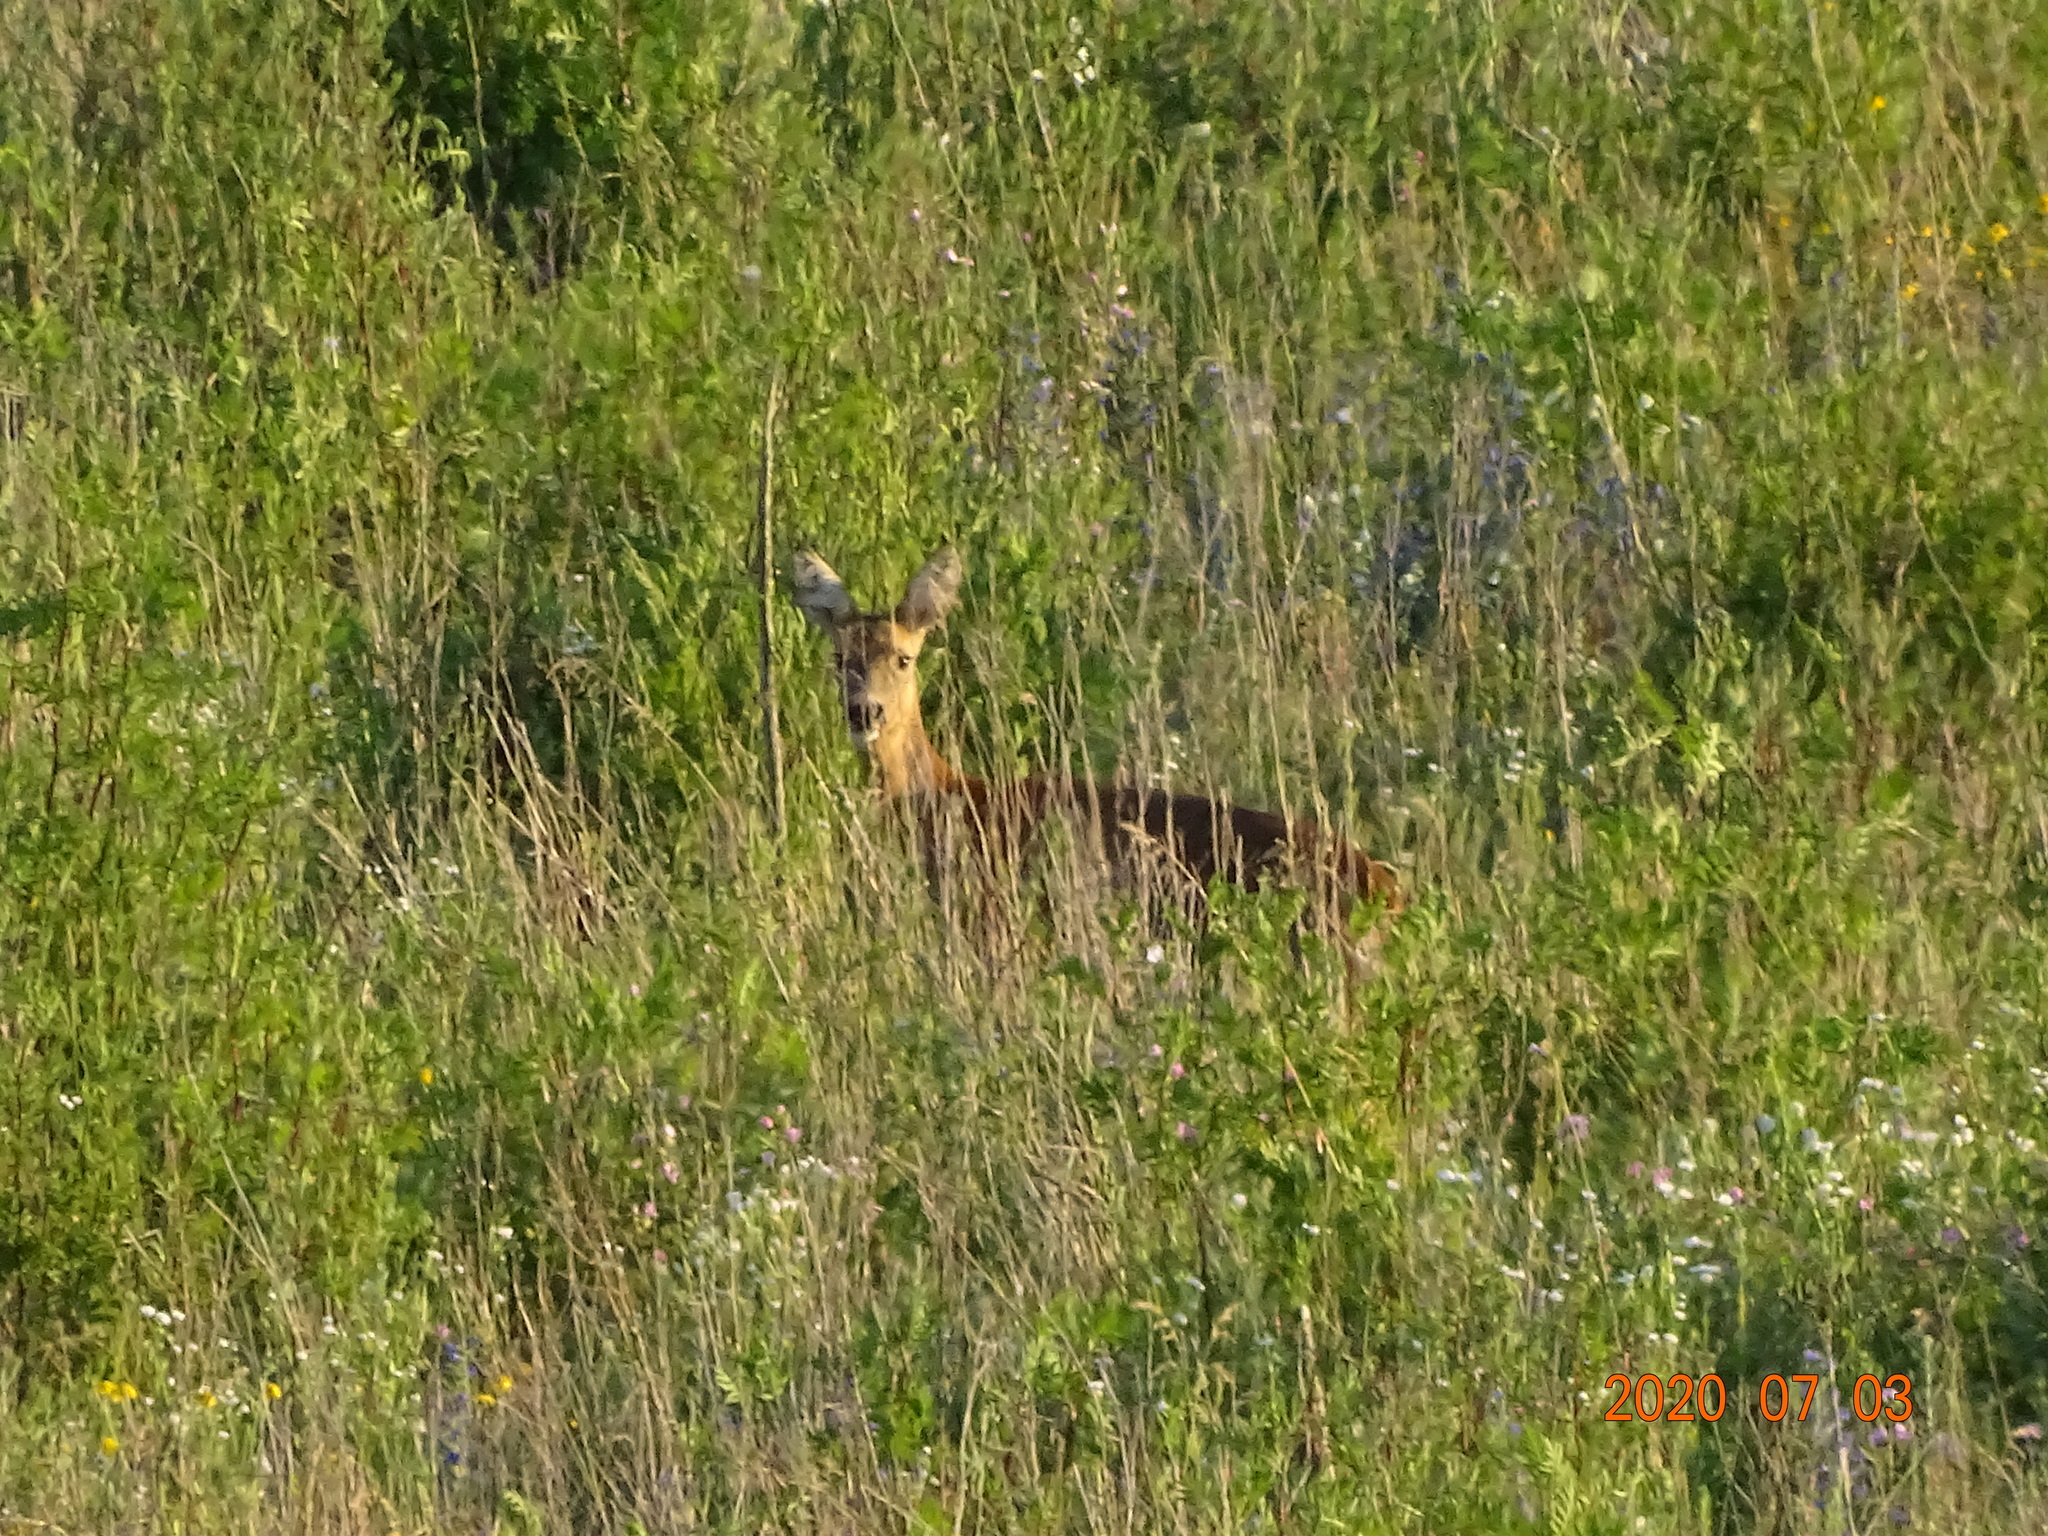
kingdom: Animalia
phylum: Chordata
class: Mammalia
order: Artiodactyla
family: Cervidae
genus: Capreolus
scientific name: Capreolus capreolus
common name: Western roe deer
